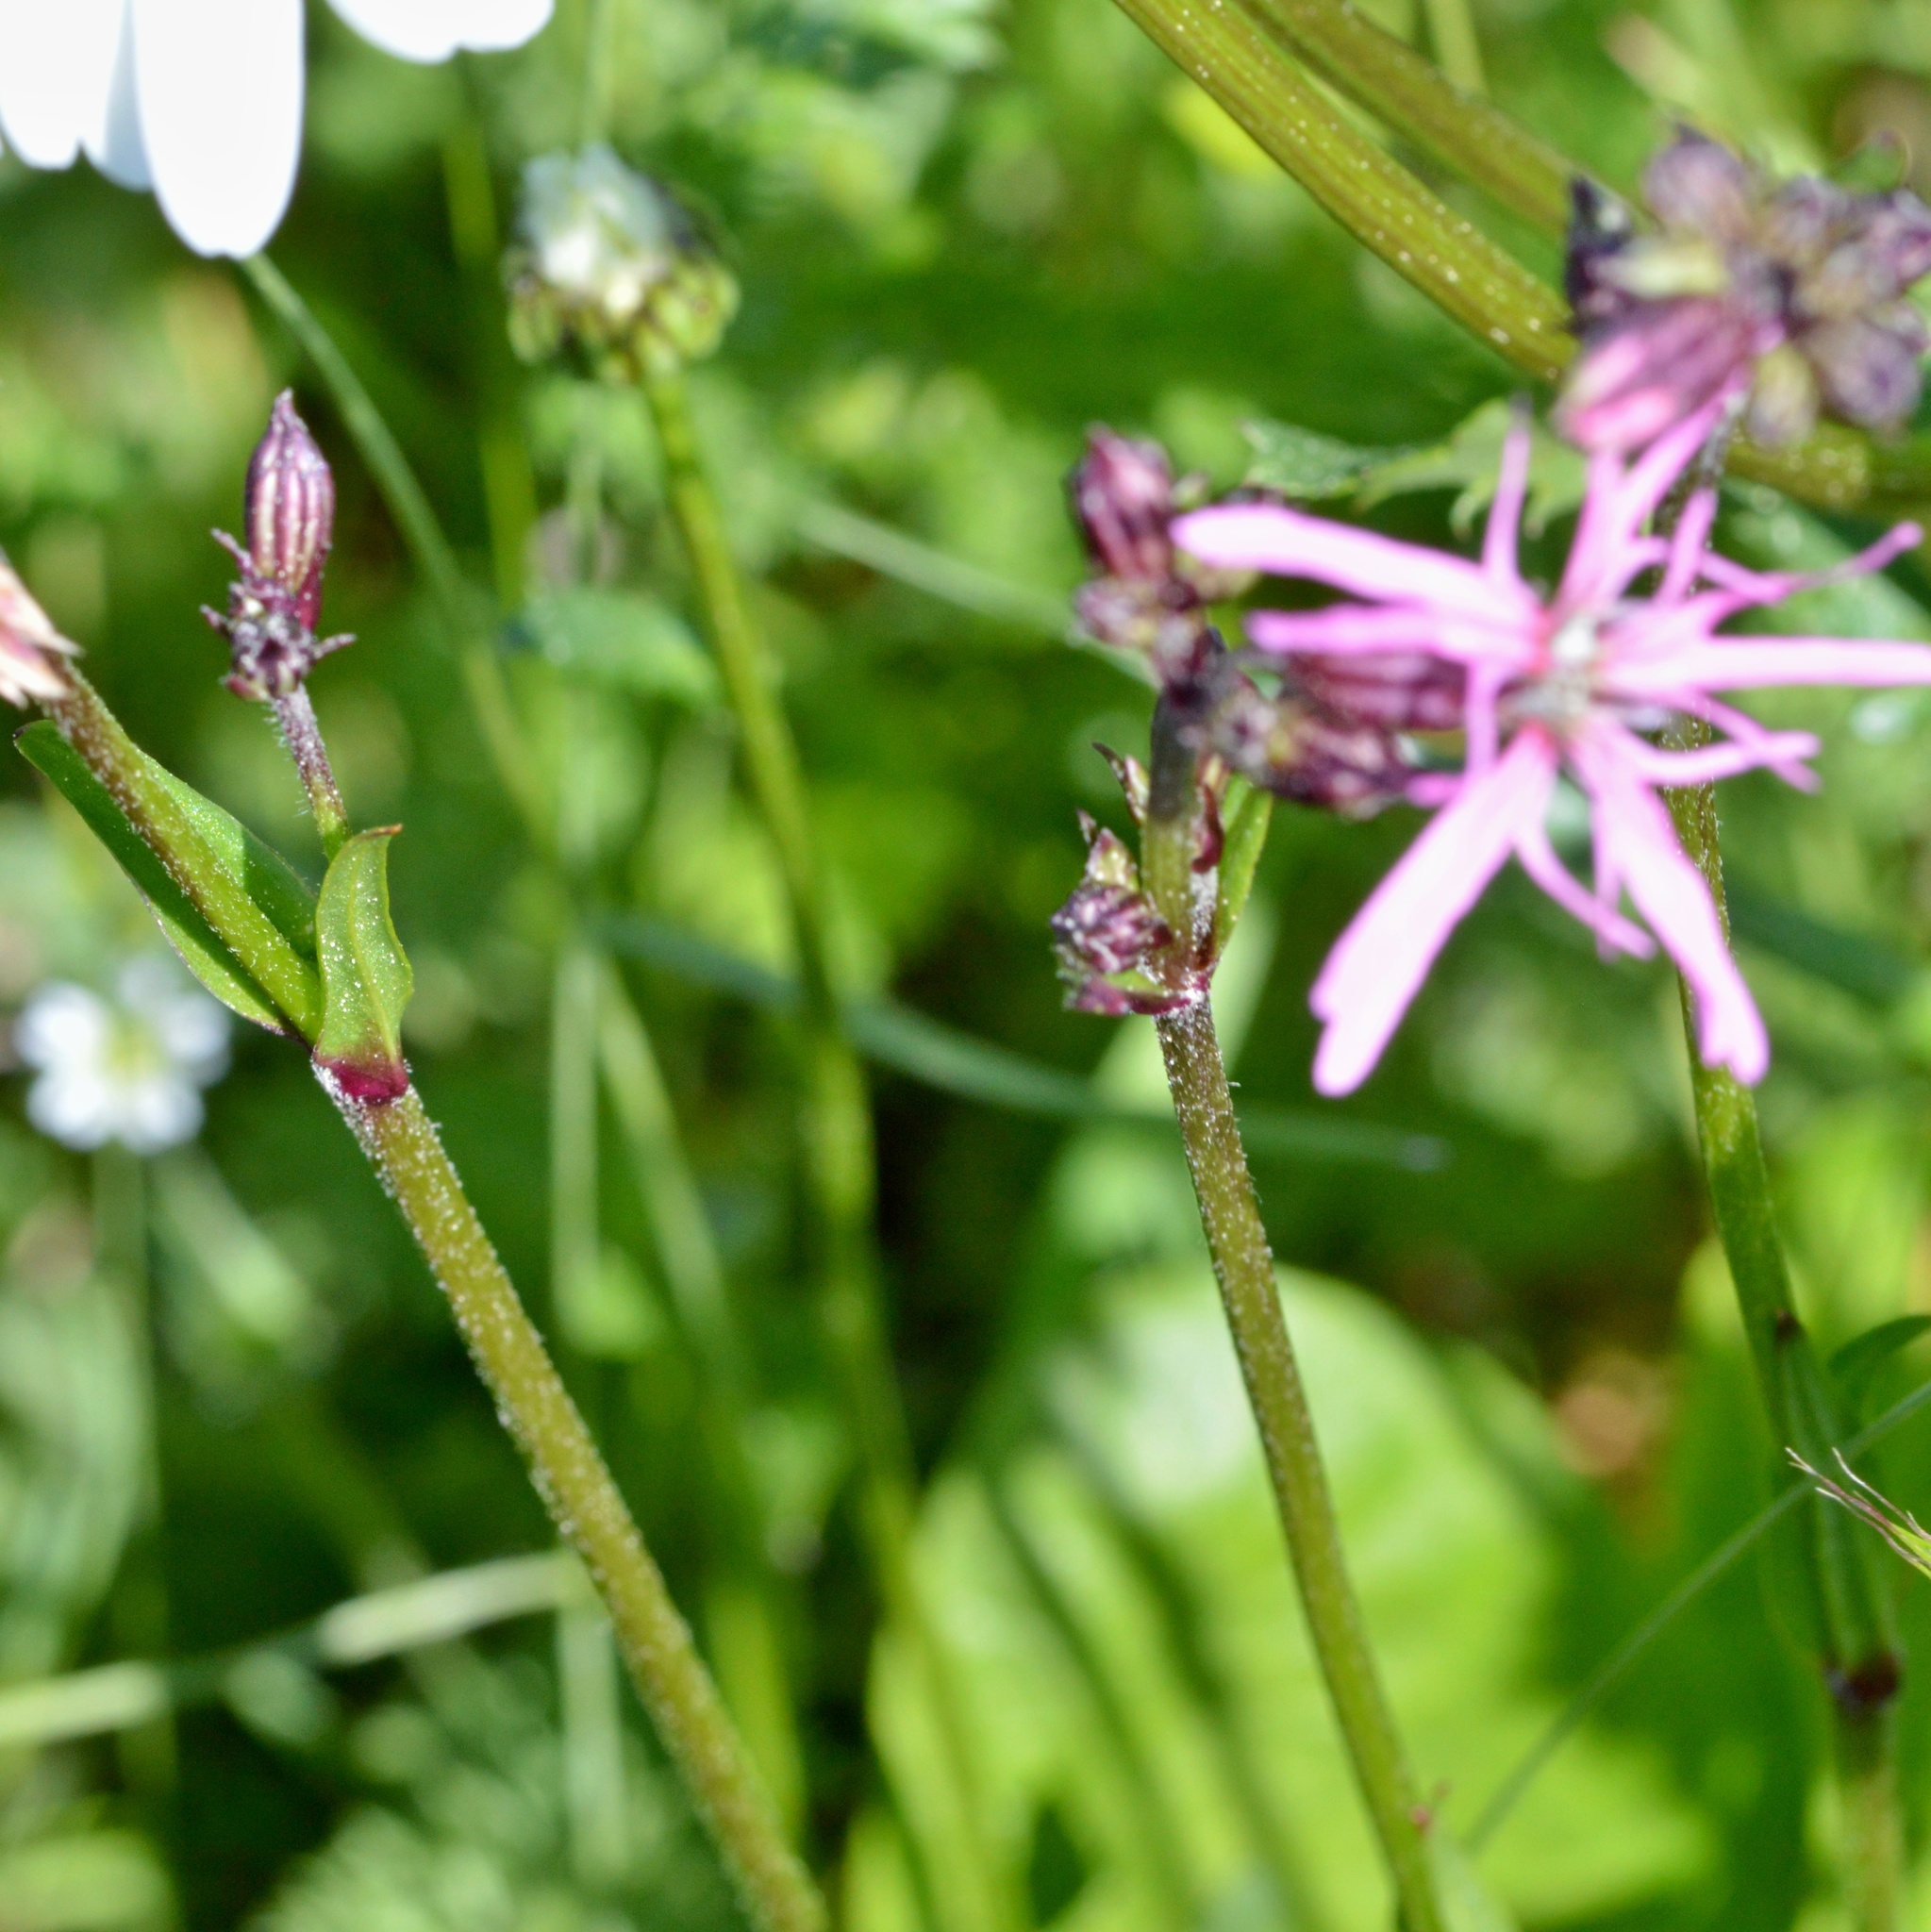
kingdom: Plantae
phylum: Tracheophyta
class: Magnoliopsida
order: Caryophyllales
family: Caryophyllaceae
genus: Silene
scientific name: Silene flos-cuculi
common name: Ragged-robin
